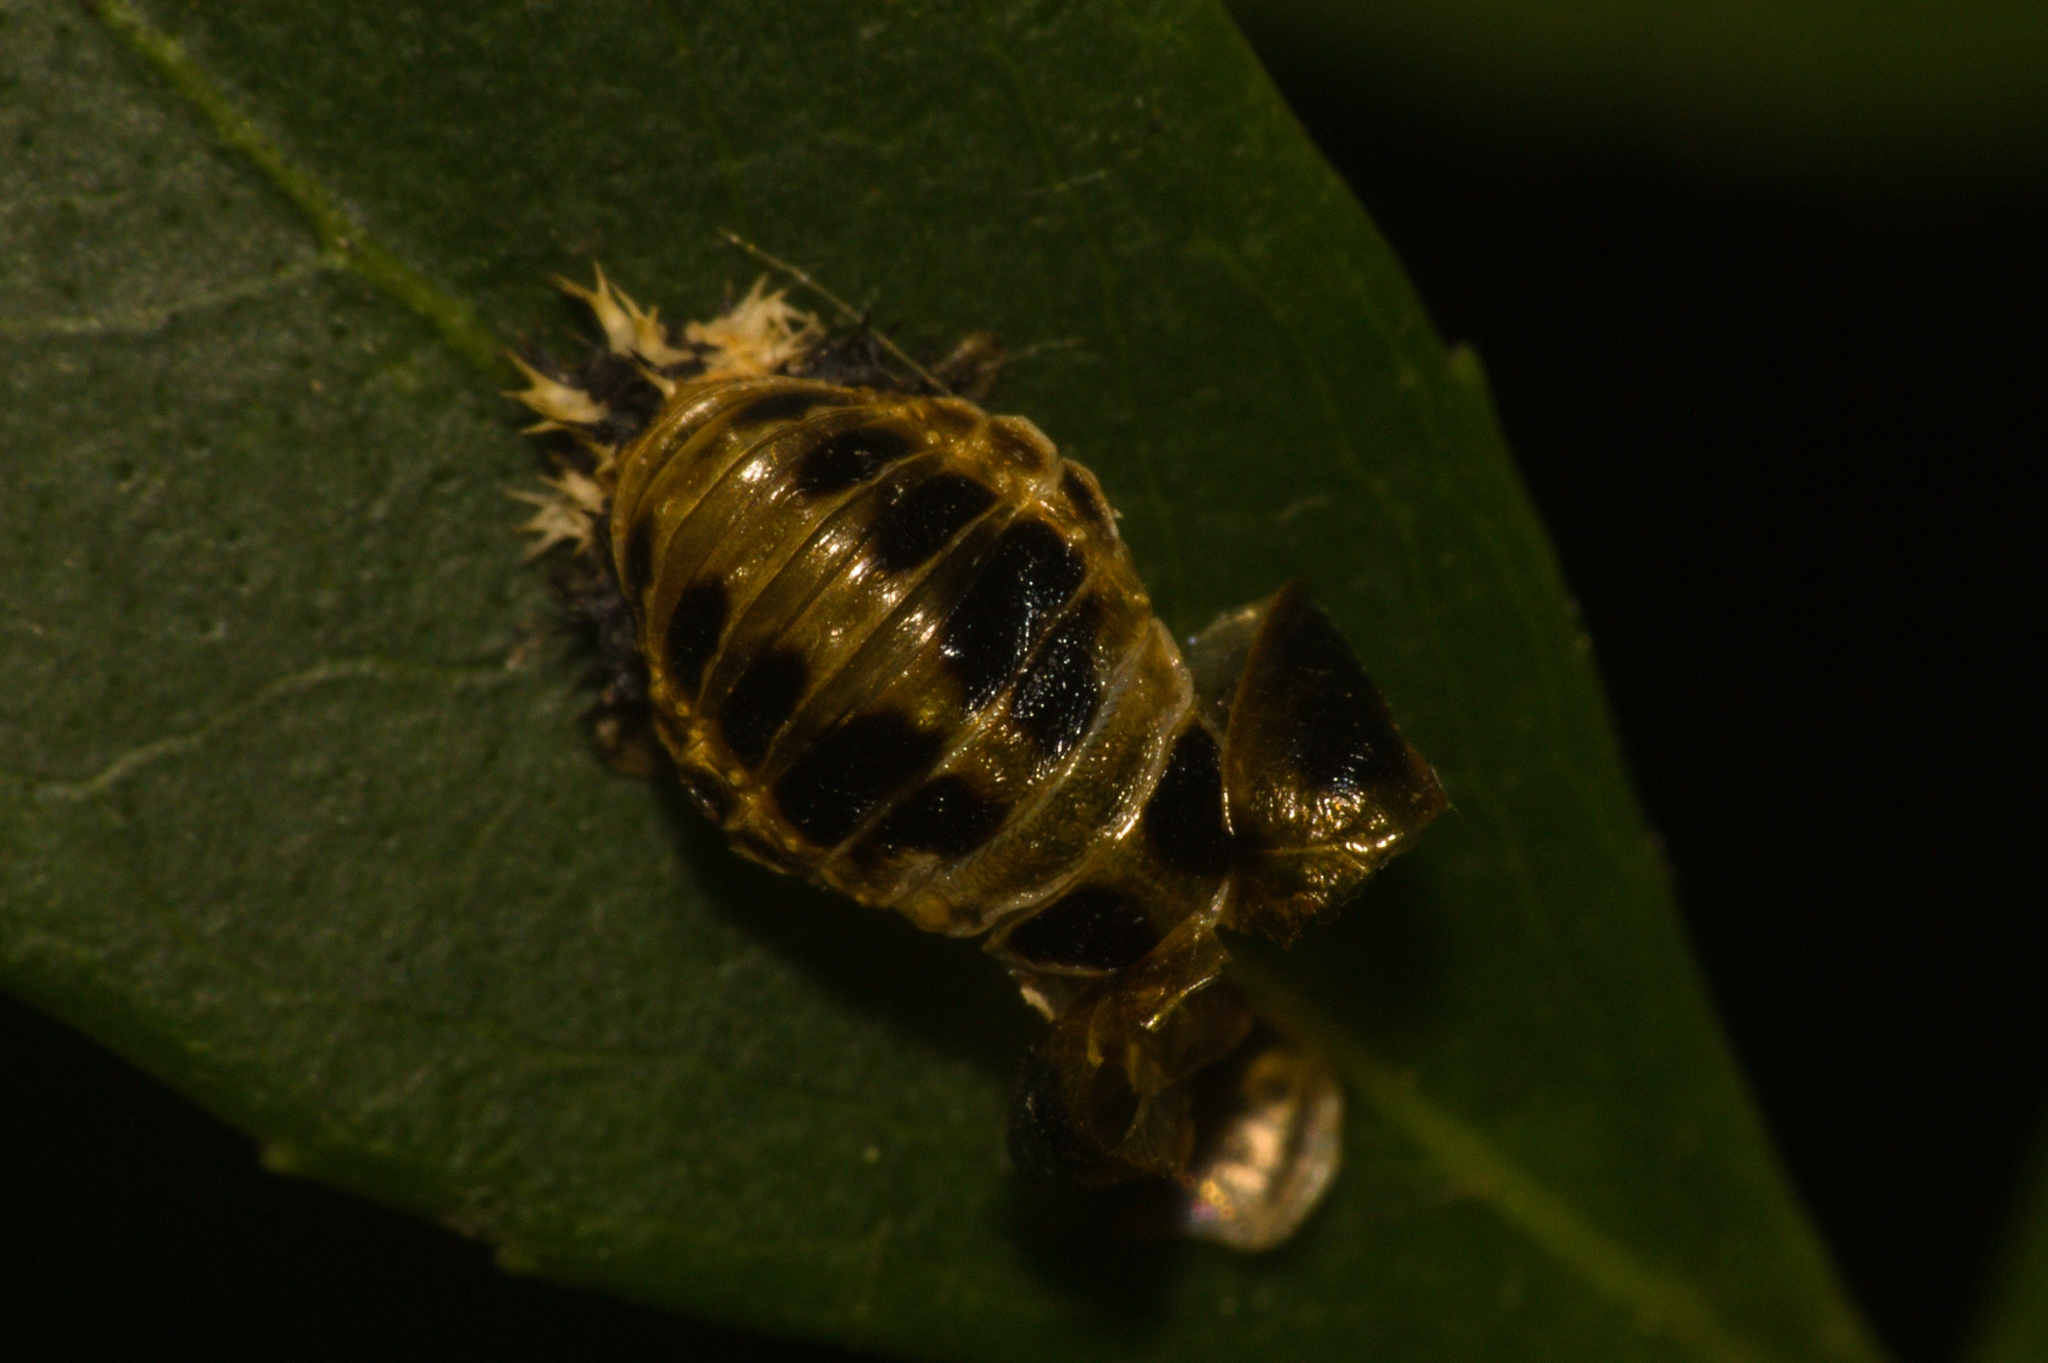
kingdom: Animalia
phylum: Arthropoda
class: Insecta
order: Coleoptera
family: Coccinellidae
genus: Harmonia
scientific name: Harmonia axyridis
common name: Harlequin ladybird
